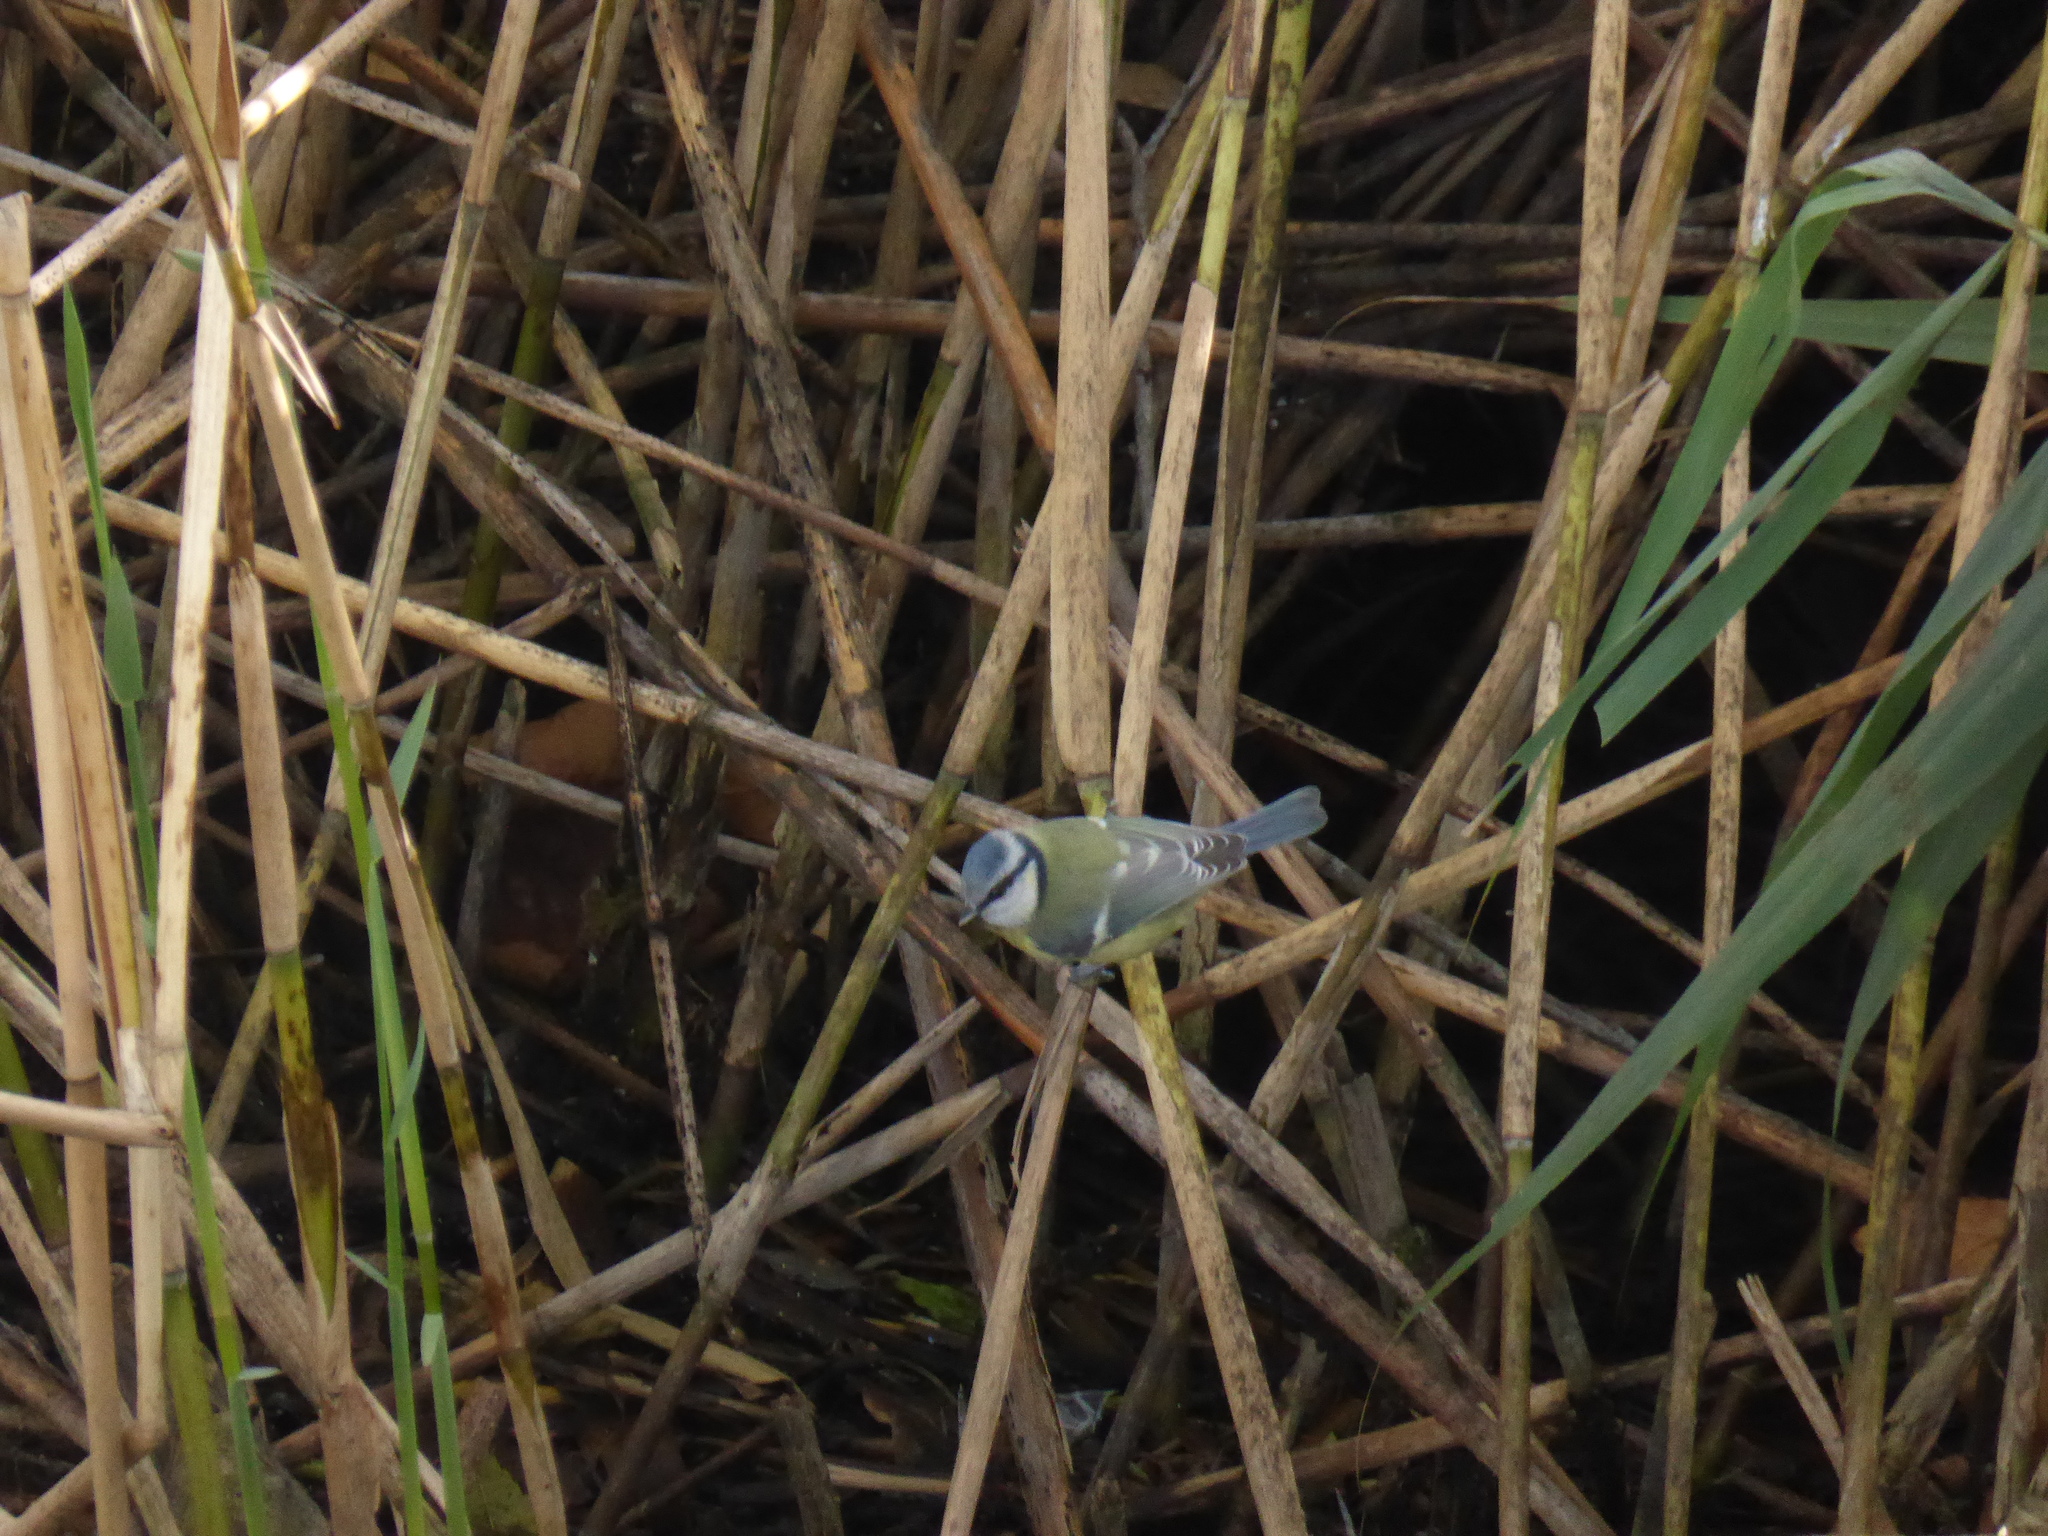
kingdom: Animalia
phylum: Chordata
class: Aves
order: Passeriformes
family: Paridae
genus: Cyanistes
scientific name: Cyanistes caeruleus
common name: Eurasian blue tit
